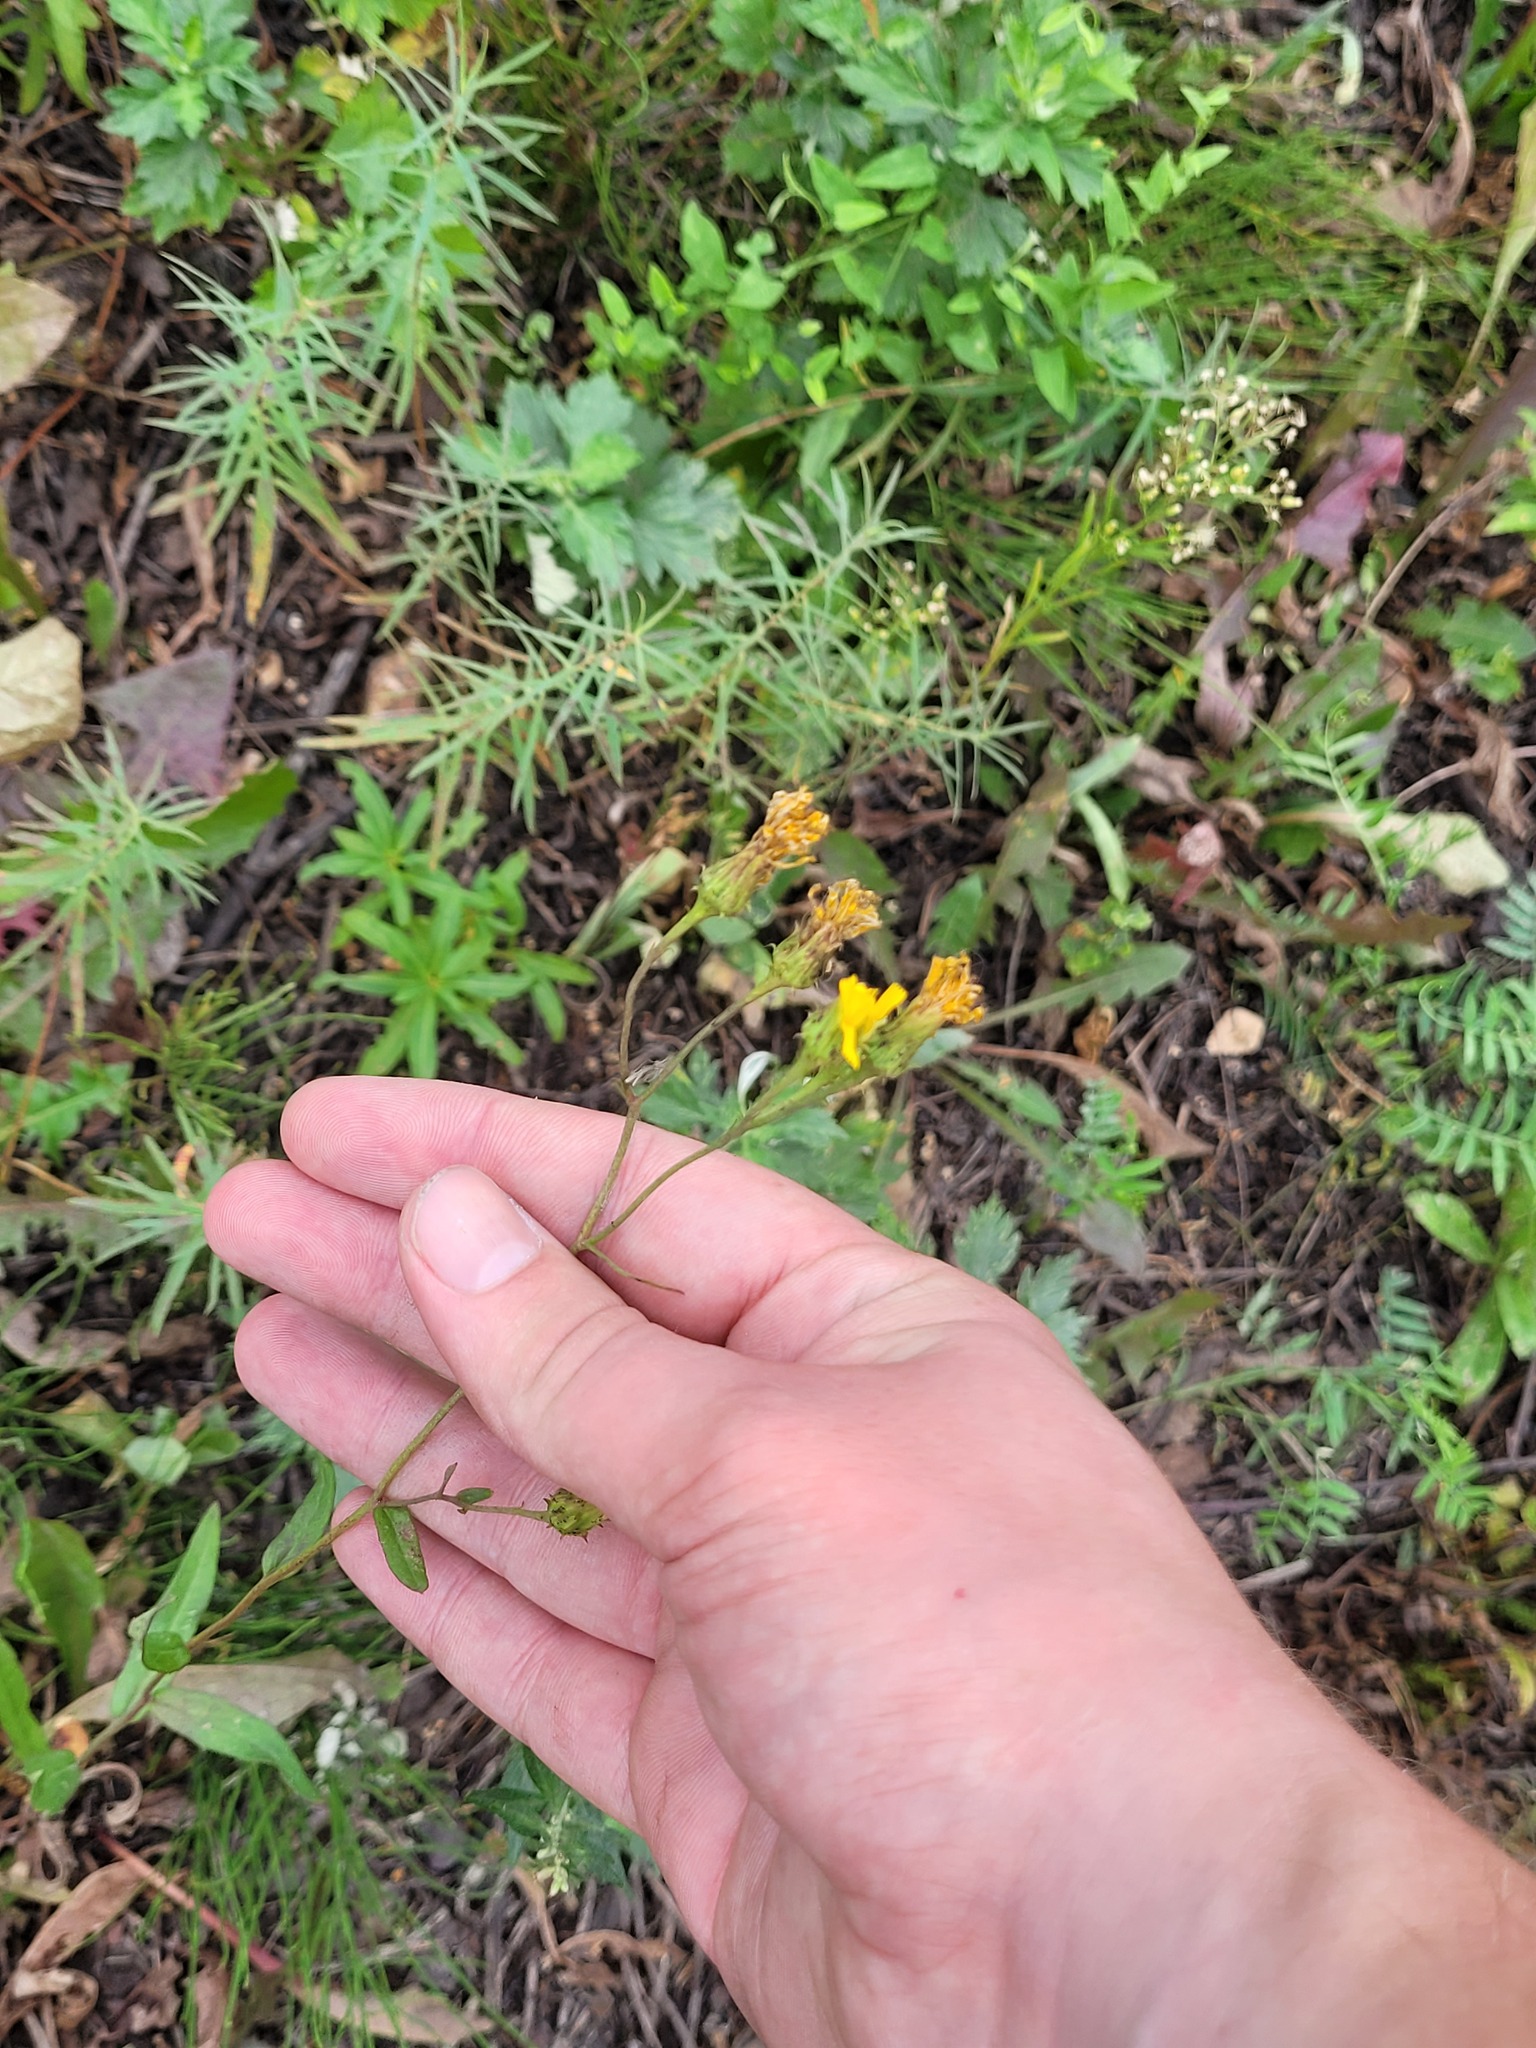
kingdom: Plantae
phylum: Tracheophyta
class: Magnoliopsida
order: Asterales
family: Asteraceae
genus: Hieracium
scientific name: Hieracium umbellatum
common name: Northern hawkweed
